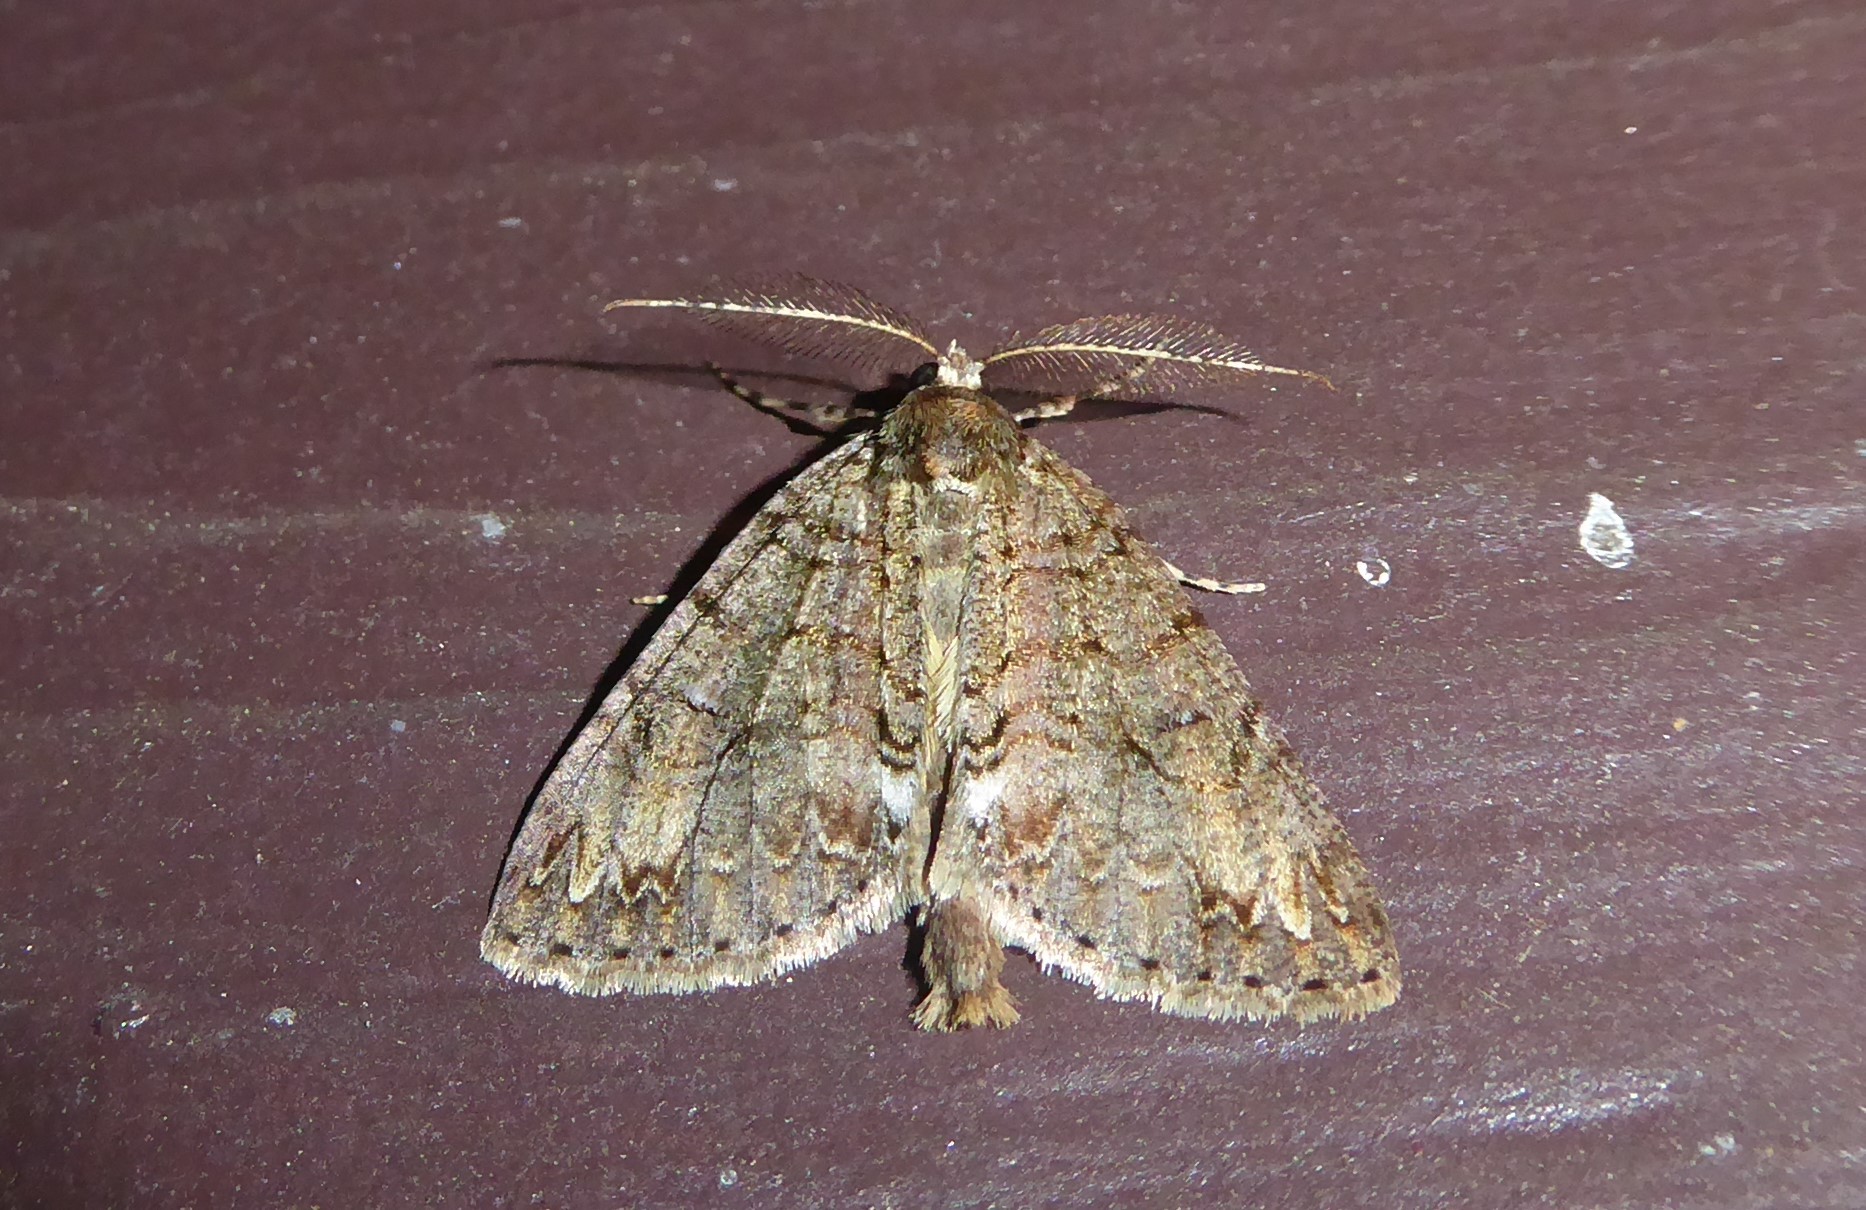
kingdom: Animalia
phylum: Arthropoda
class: Insecta
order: Lepidoptera
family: Geometridae
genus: Pseudocoremia
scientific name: Pseudocoremia suavis
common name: Common forest looper
